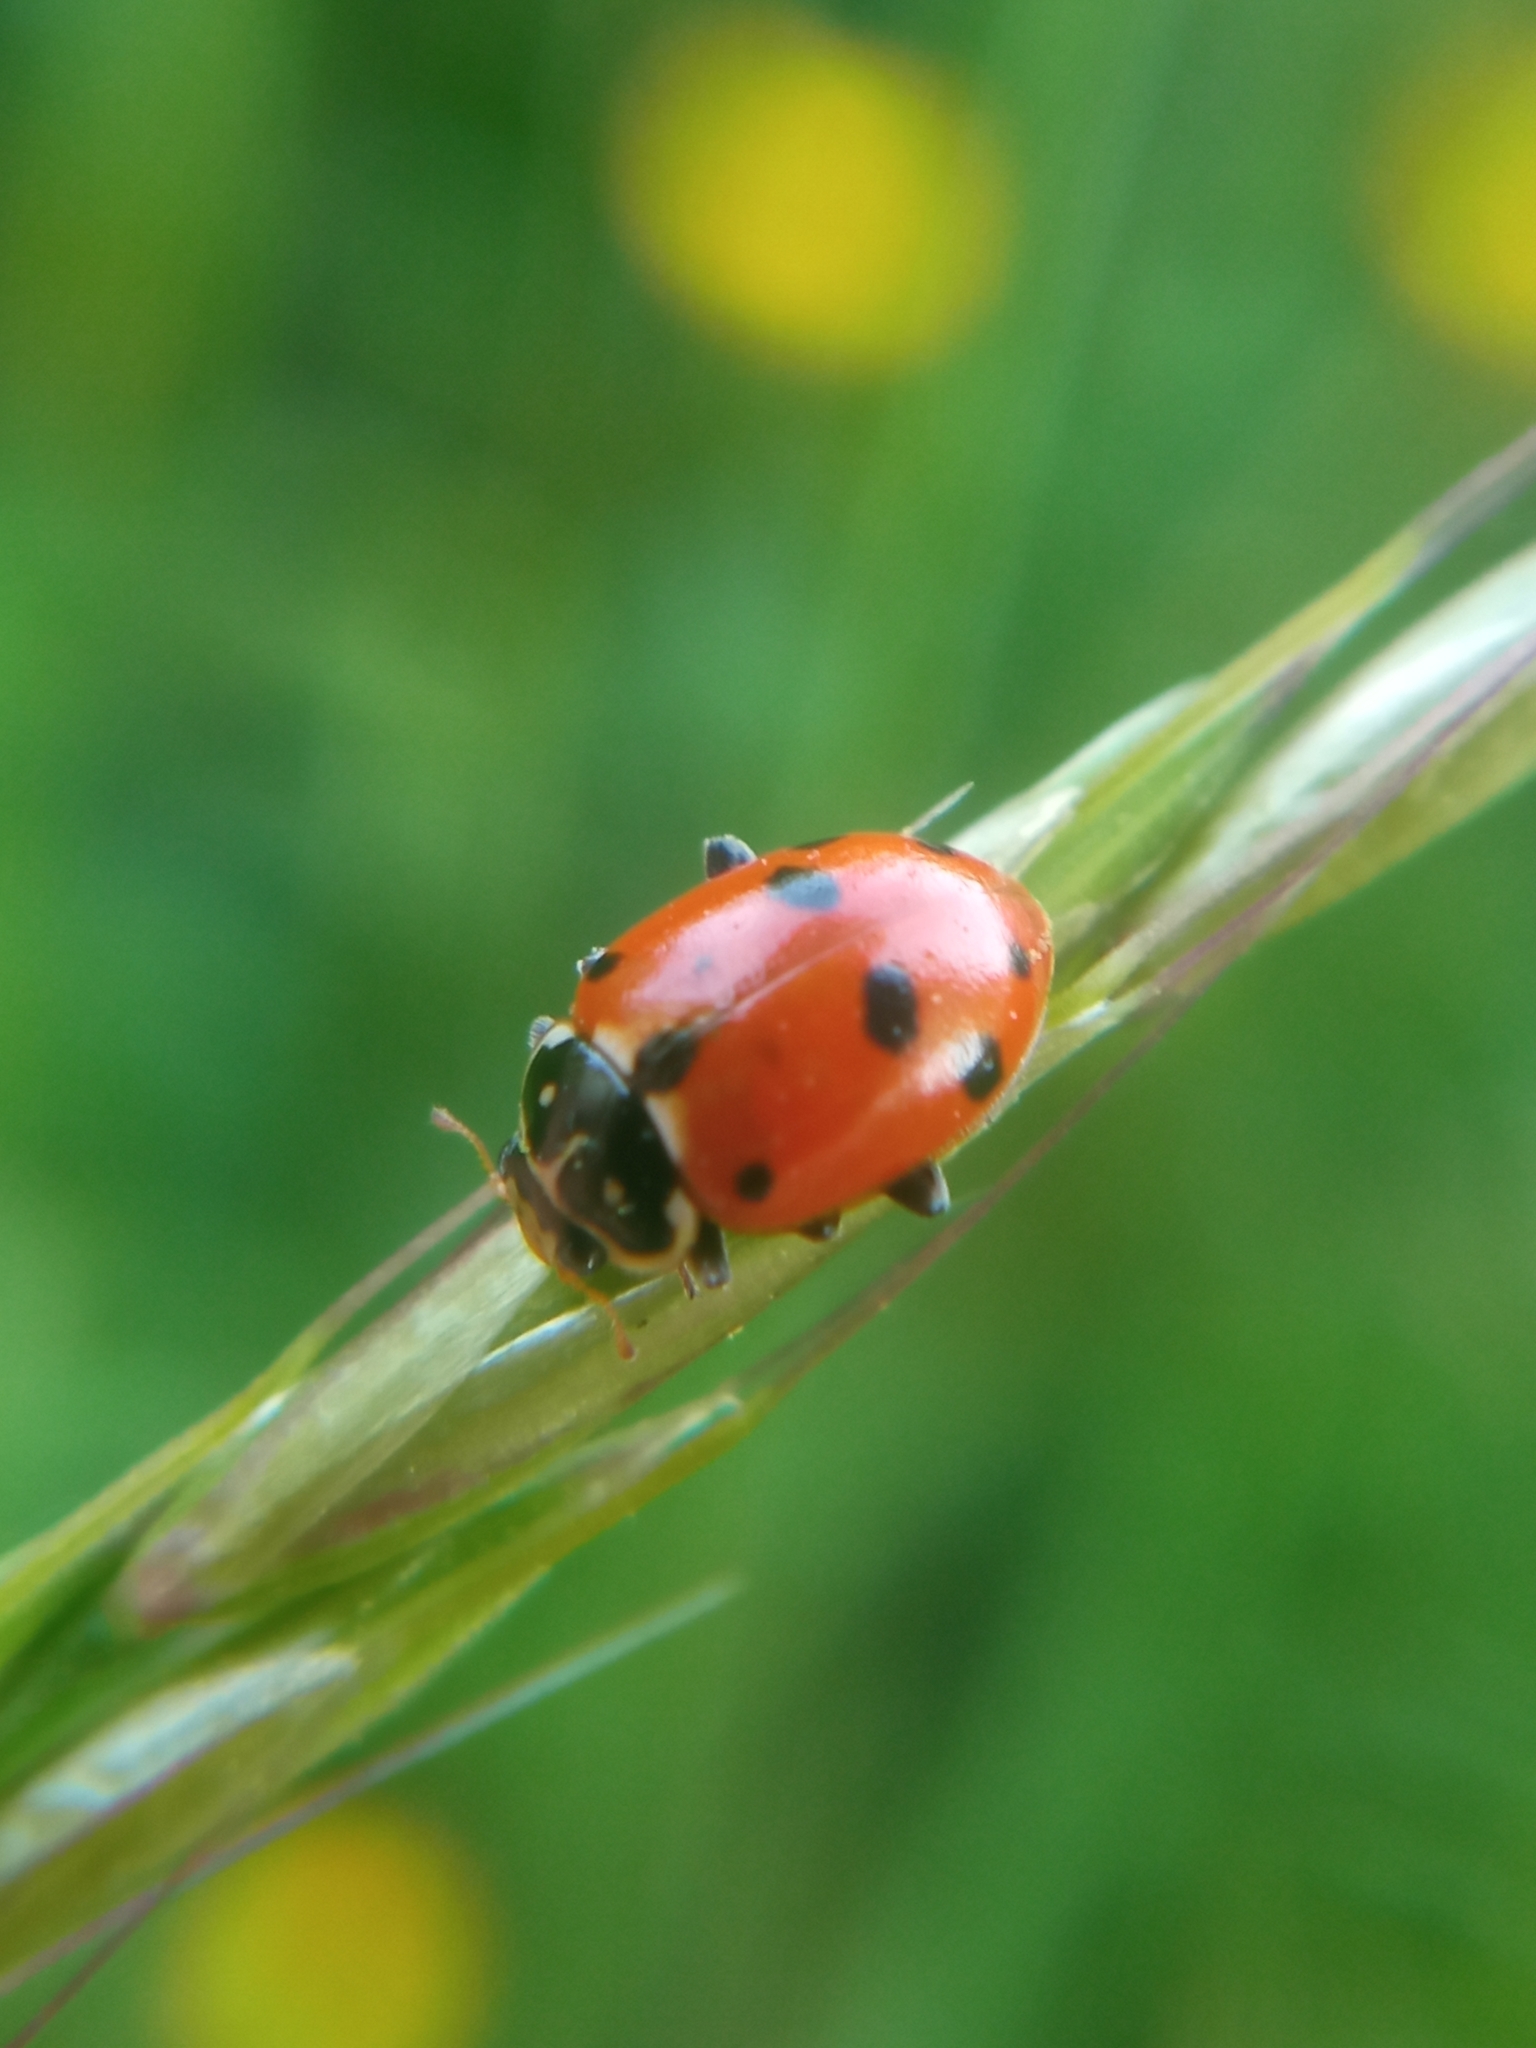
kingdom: Animalia
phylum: Arthropoda
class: Insecta
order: Coleoptera
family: Coccinellidae
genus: Hippodamia
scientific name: Hippodamia variegata
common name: Ladybird beetle
